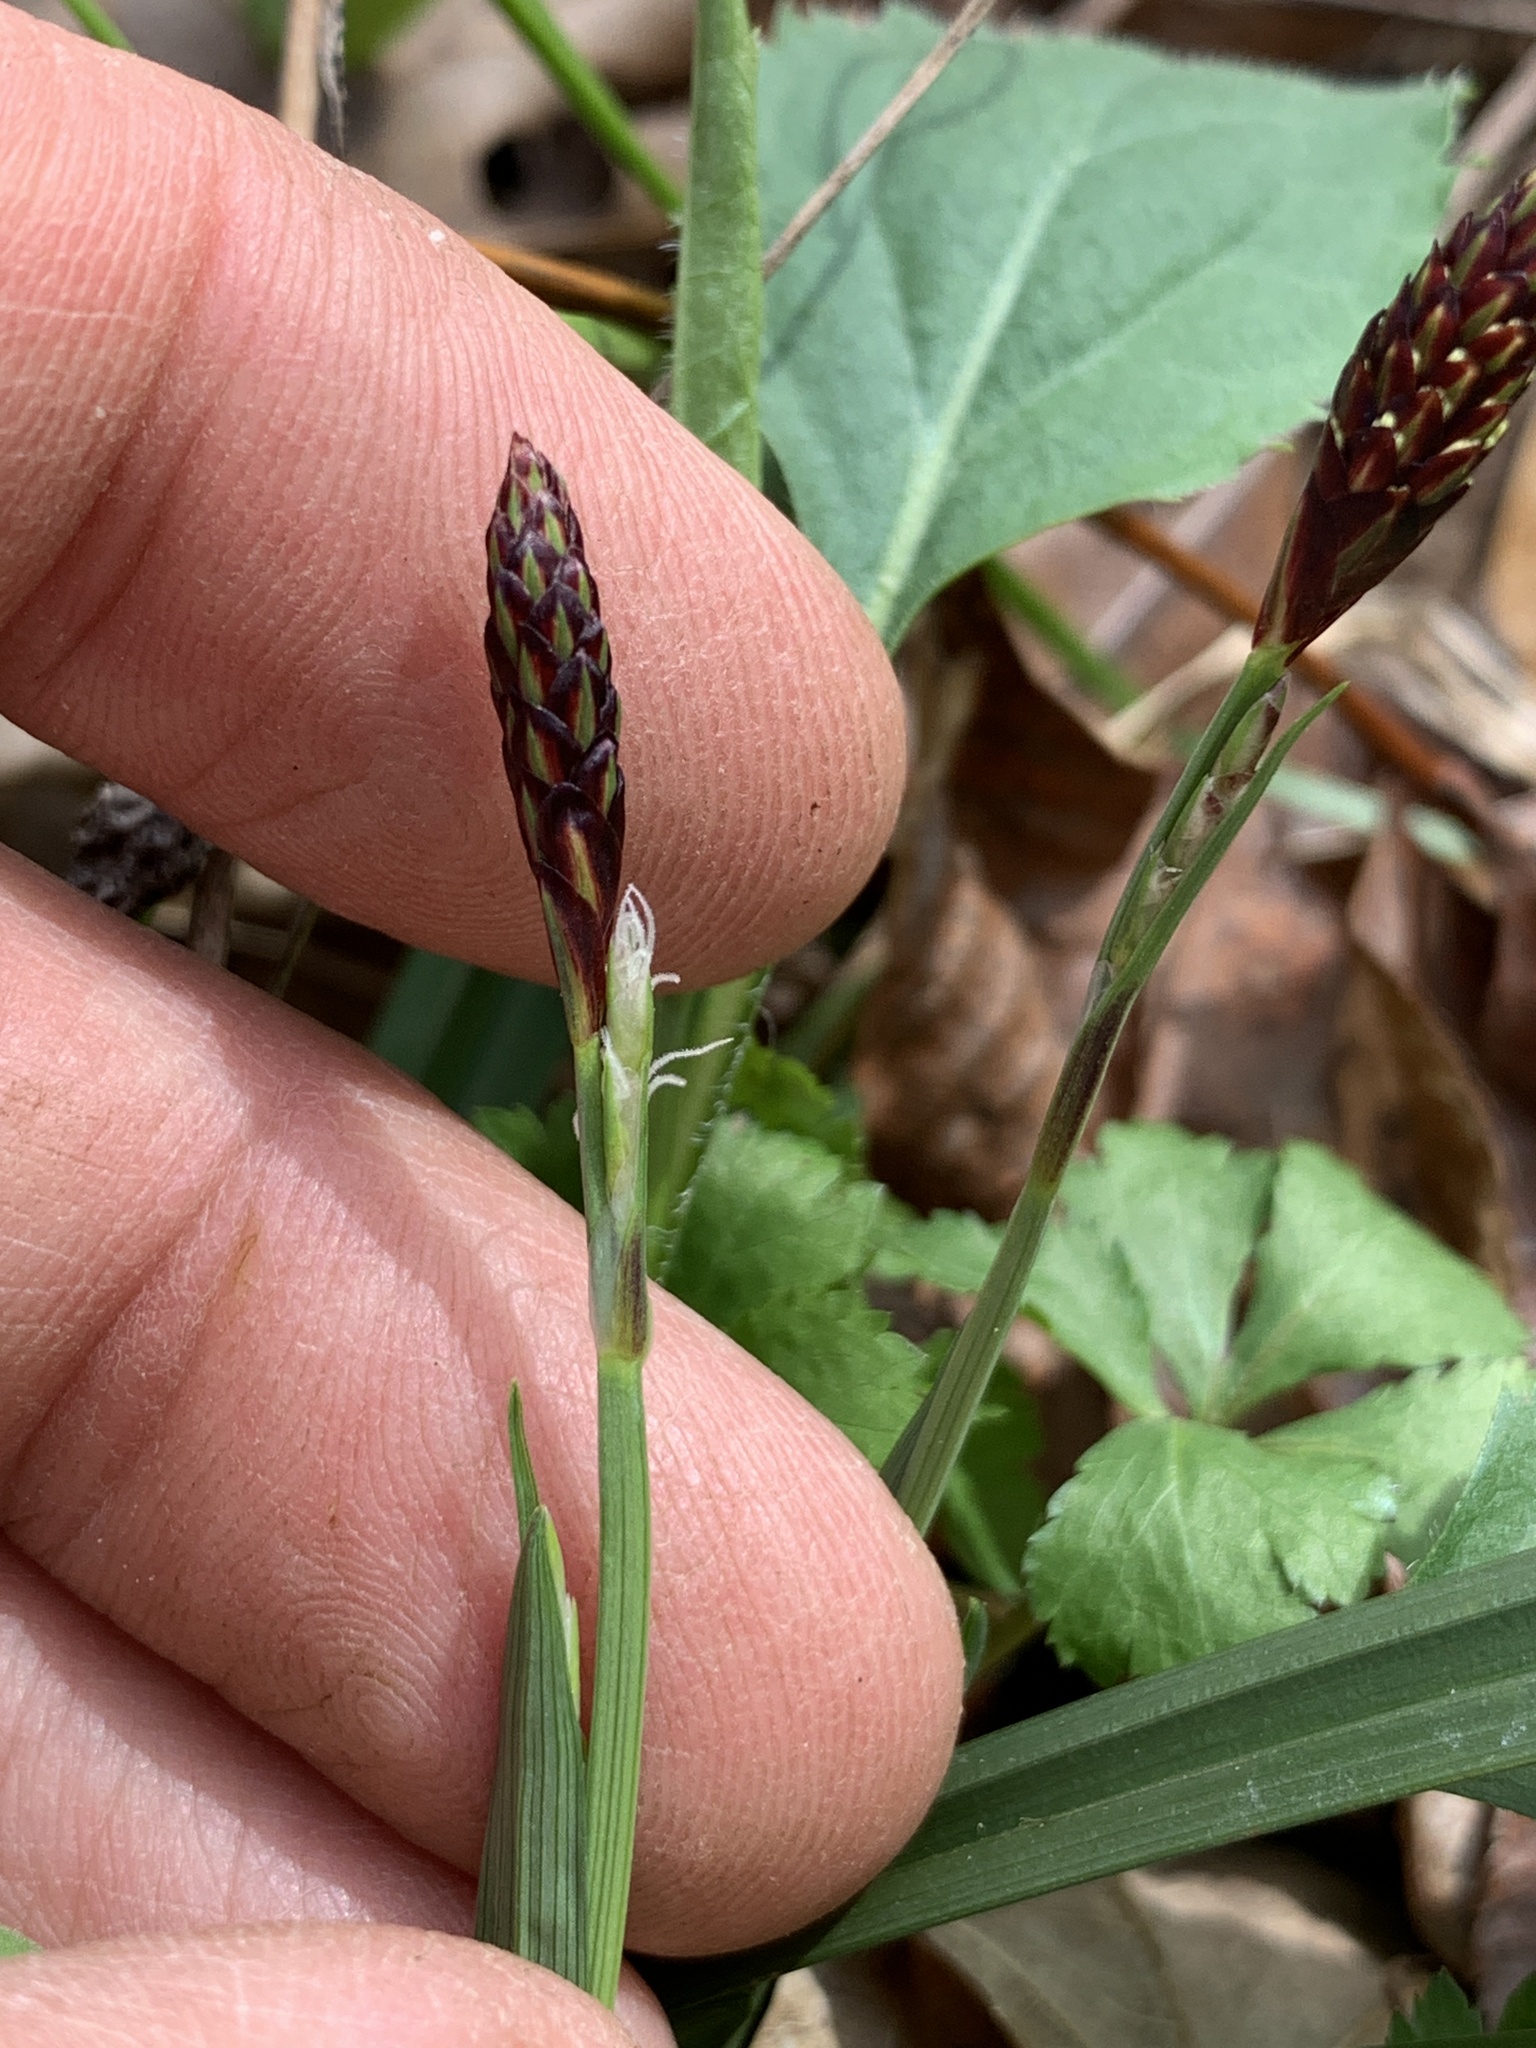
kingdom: Plantae
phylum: Tracheophyta
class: Liliopsida
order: Poales
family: Cyperaceae
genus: Carex
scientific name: Carex careyana
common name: Carey's sedge
